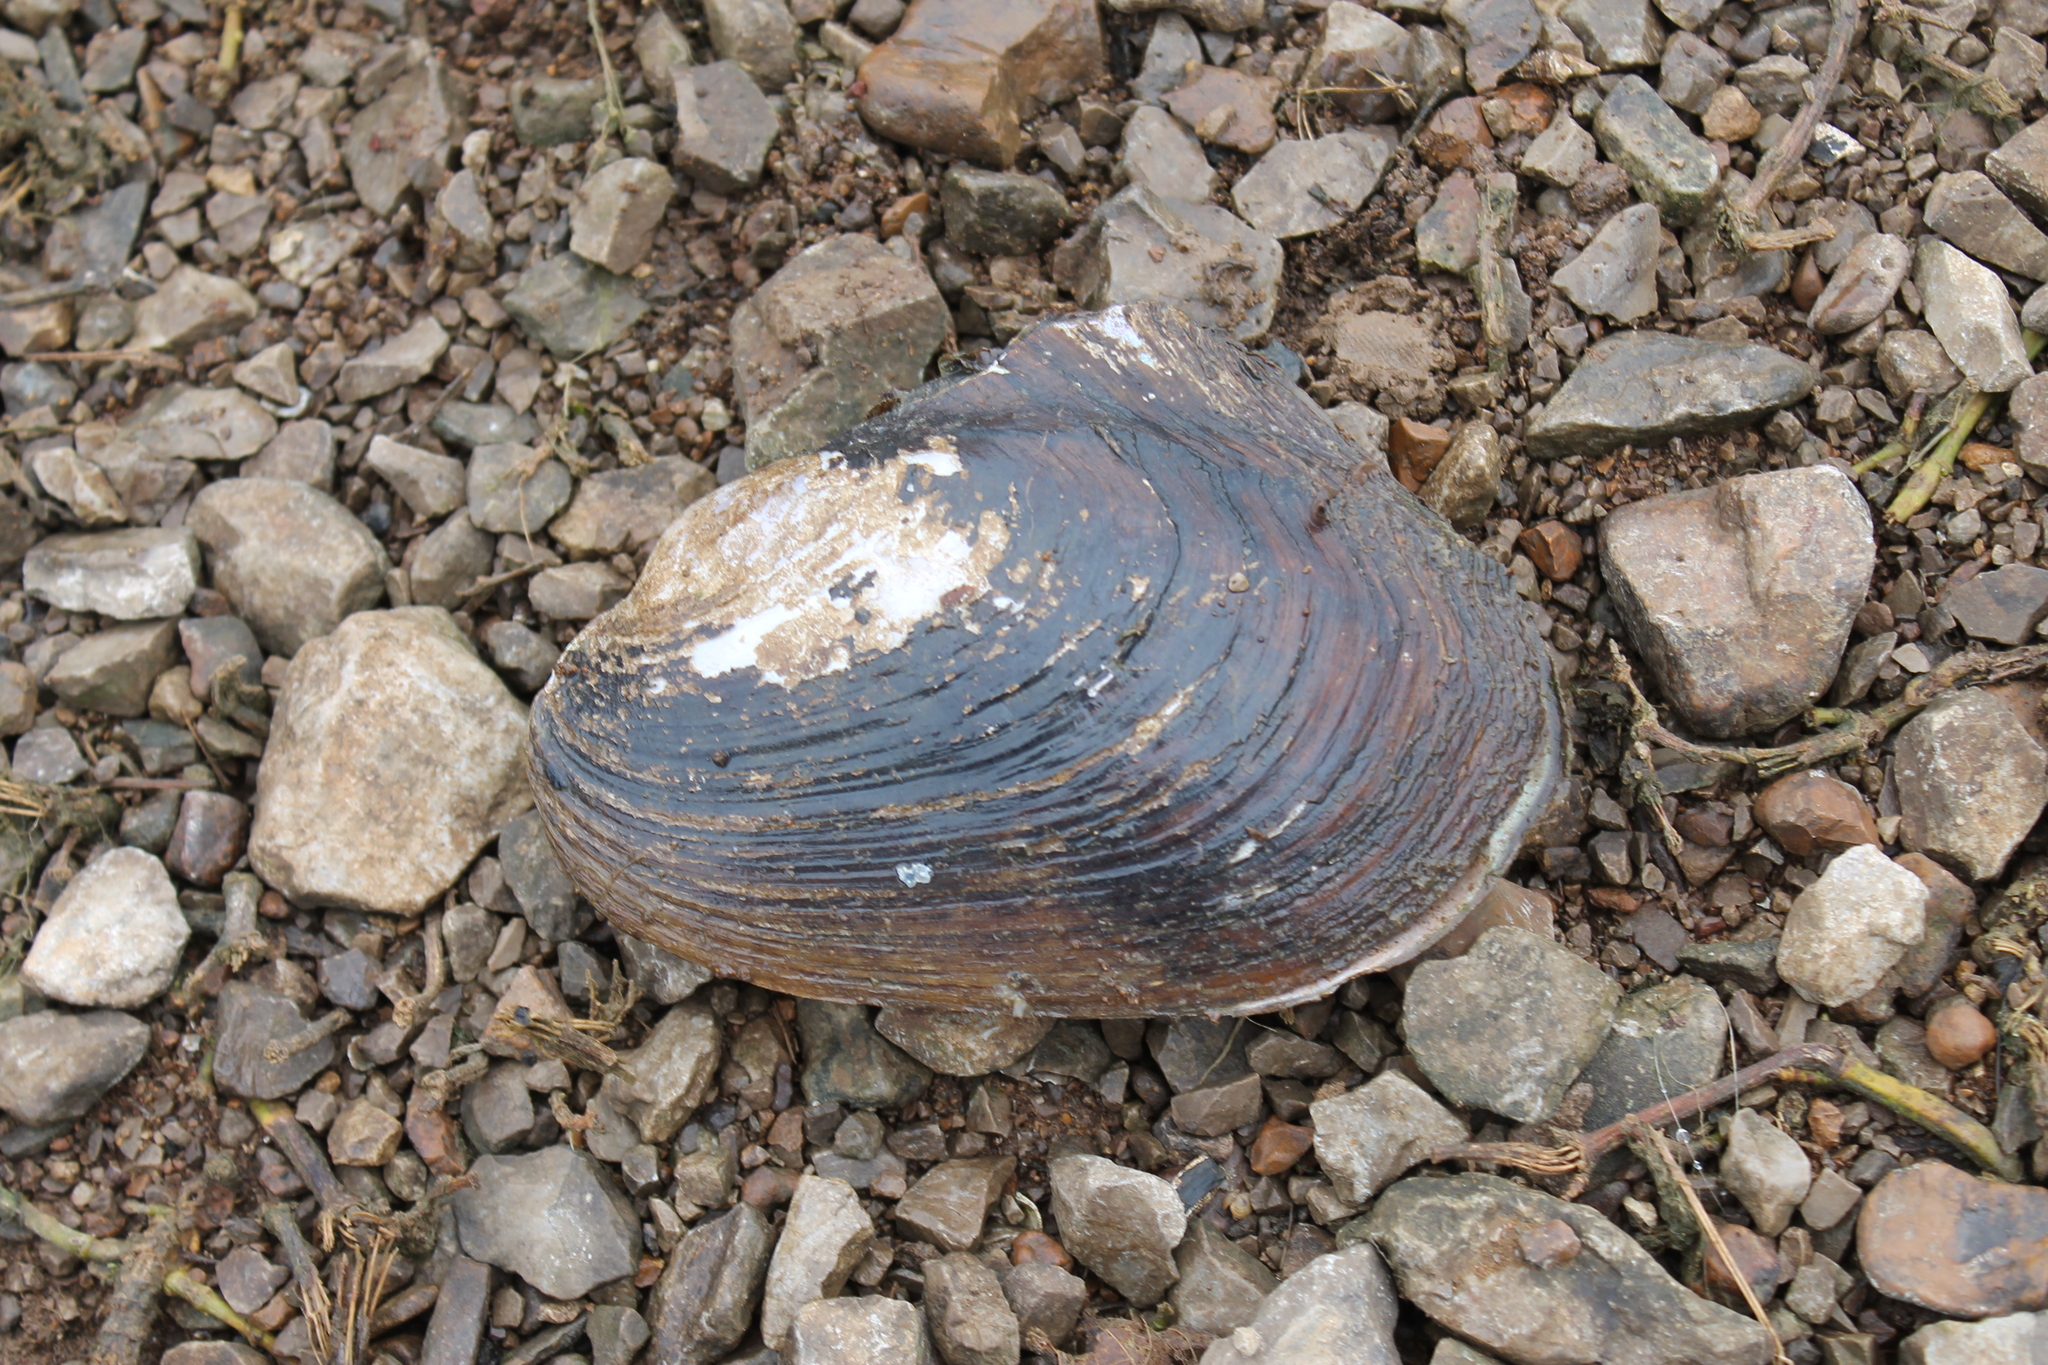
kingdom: Animalia
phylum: Mollusca
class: Bivalvia
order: Unionida
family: Unionidae
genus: Potamilus
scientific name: Potamilus alatus
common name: Pink heelsplitter
